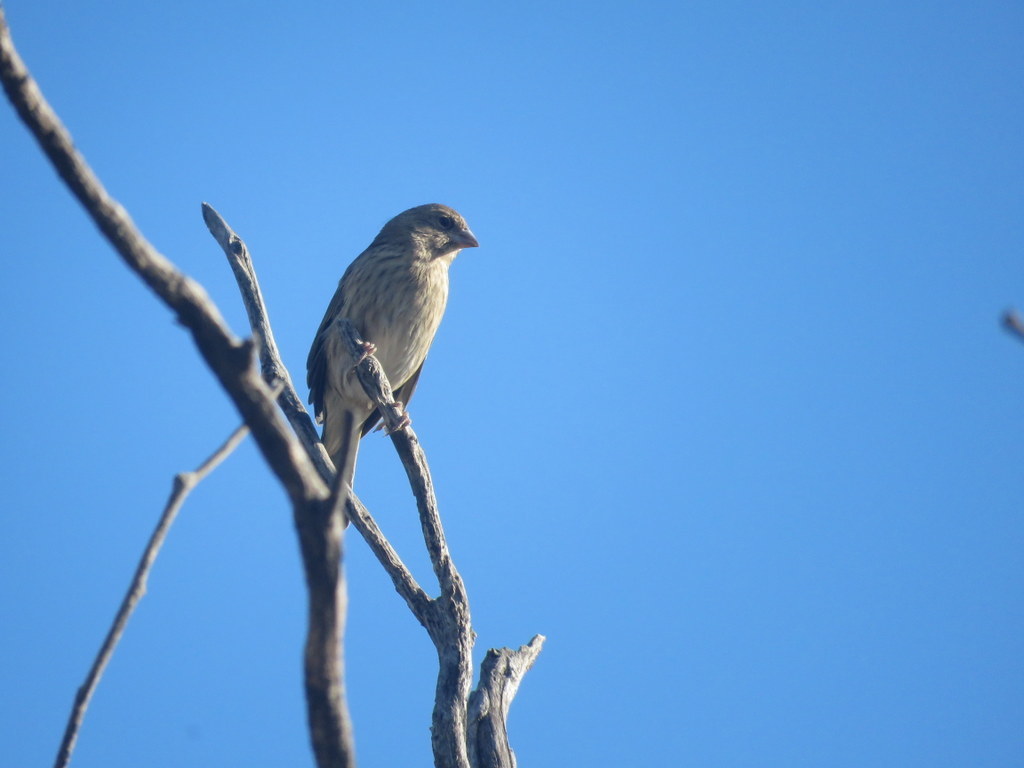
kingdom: Animalia
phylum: Chordata
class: Aves
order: Passeriformes
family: Thraupidae
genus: Sicalis
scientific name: Sicalis flaveola
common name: Saffron finch
